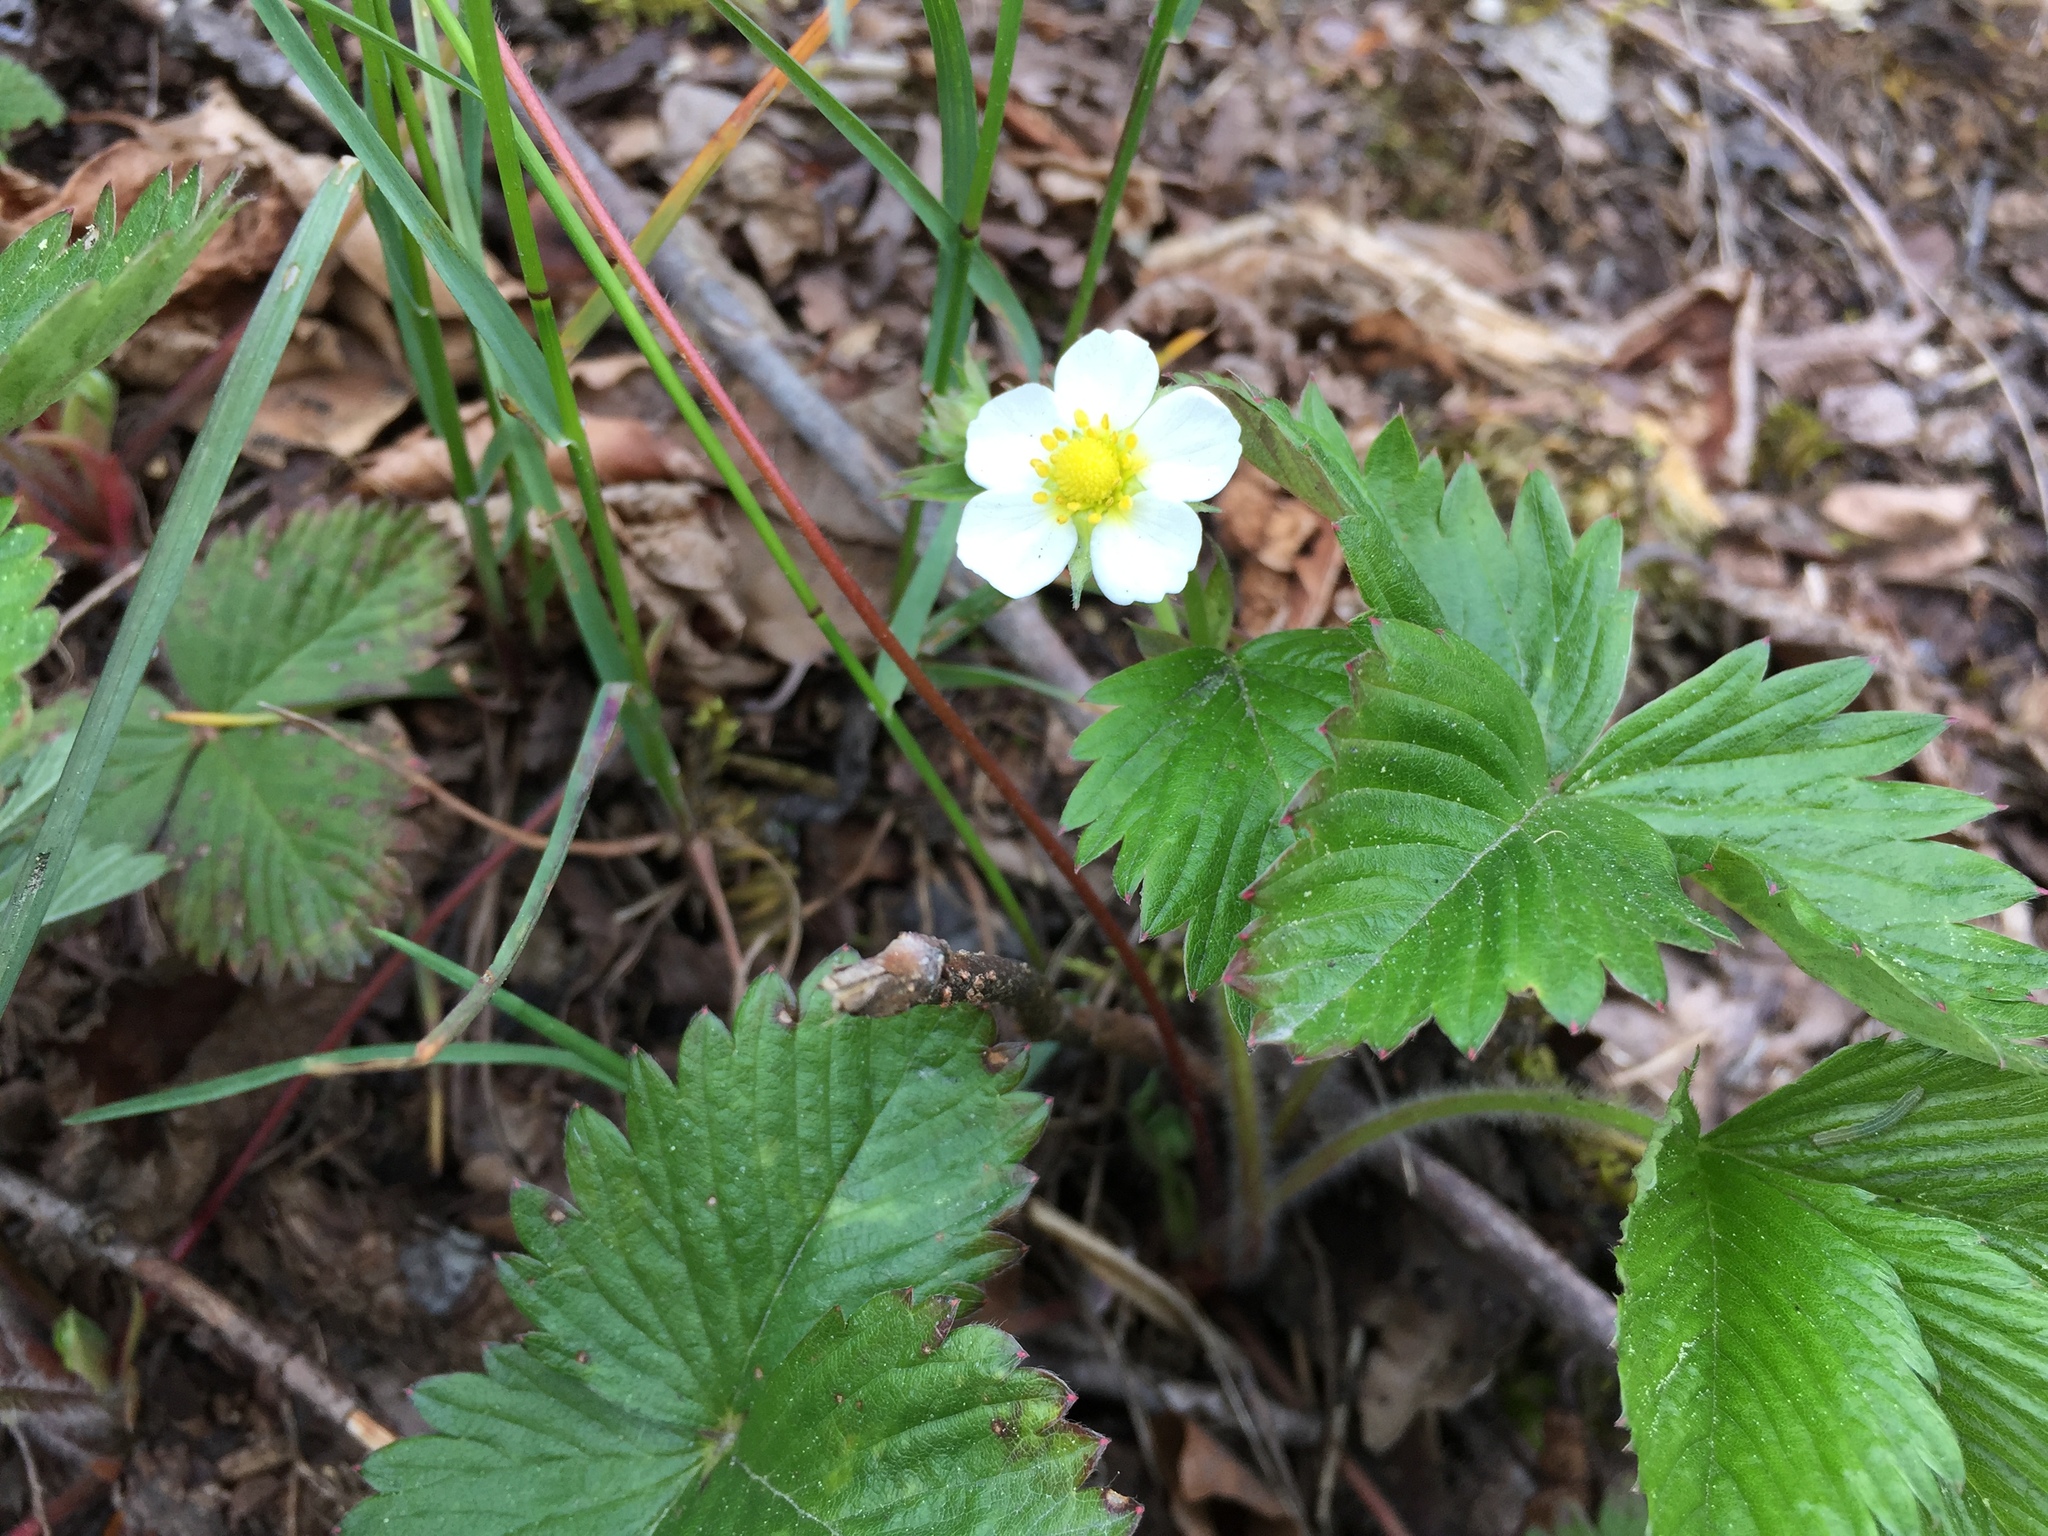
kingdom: Plantae
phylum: Tracheophyta
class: Magnoliopsida
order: Rosales
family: Rosaceae
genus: Fragaria
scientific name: Fragaria vesca
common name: Wild strawberry
